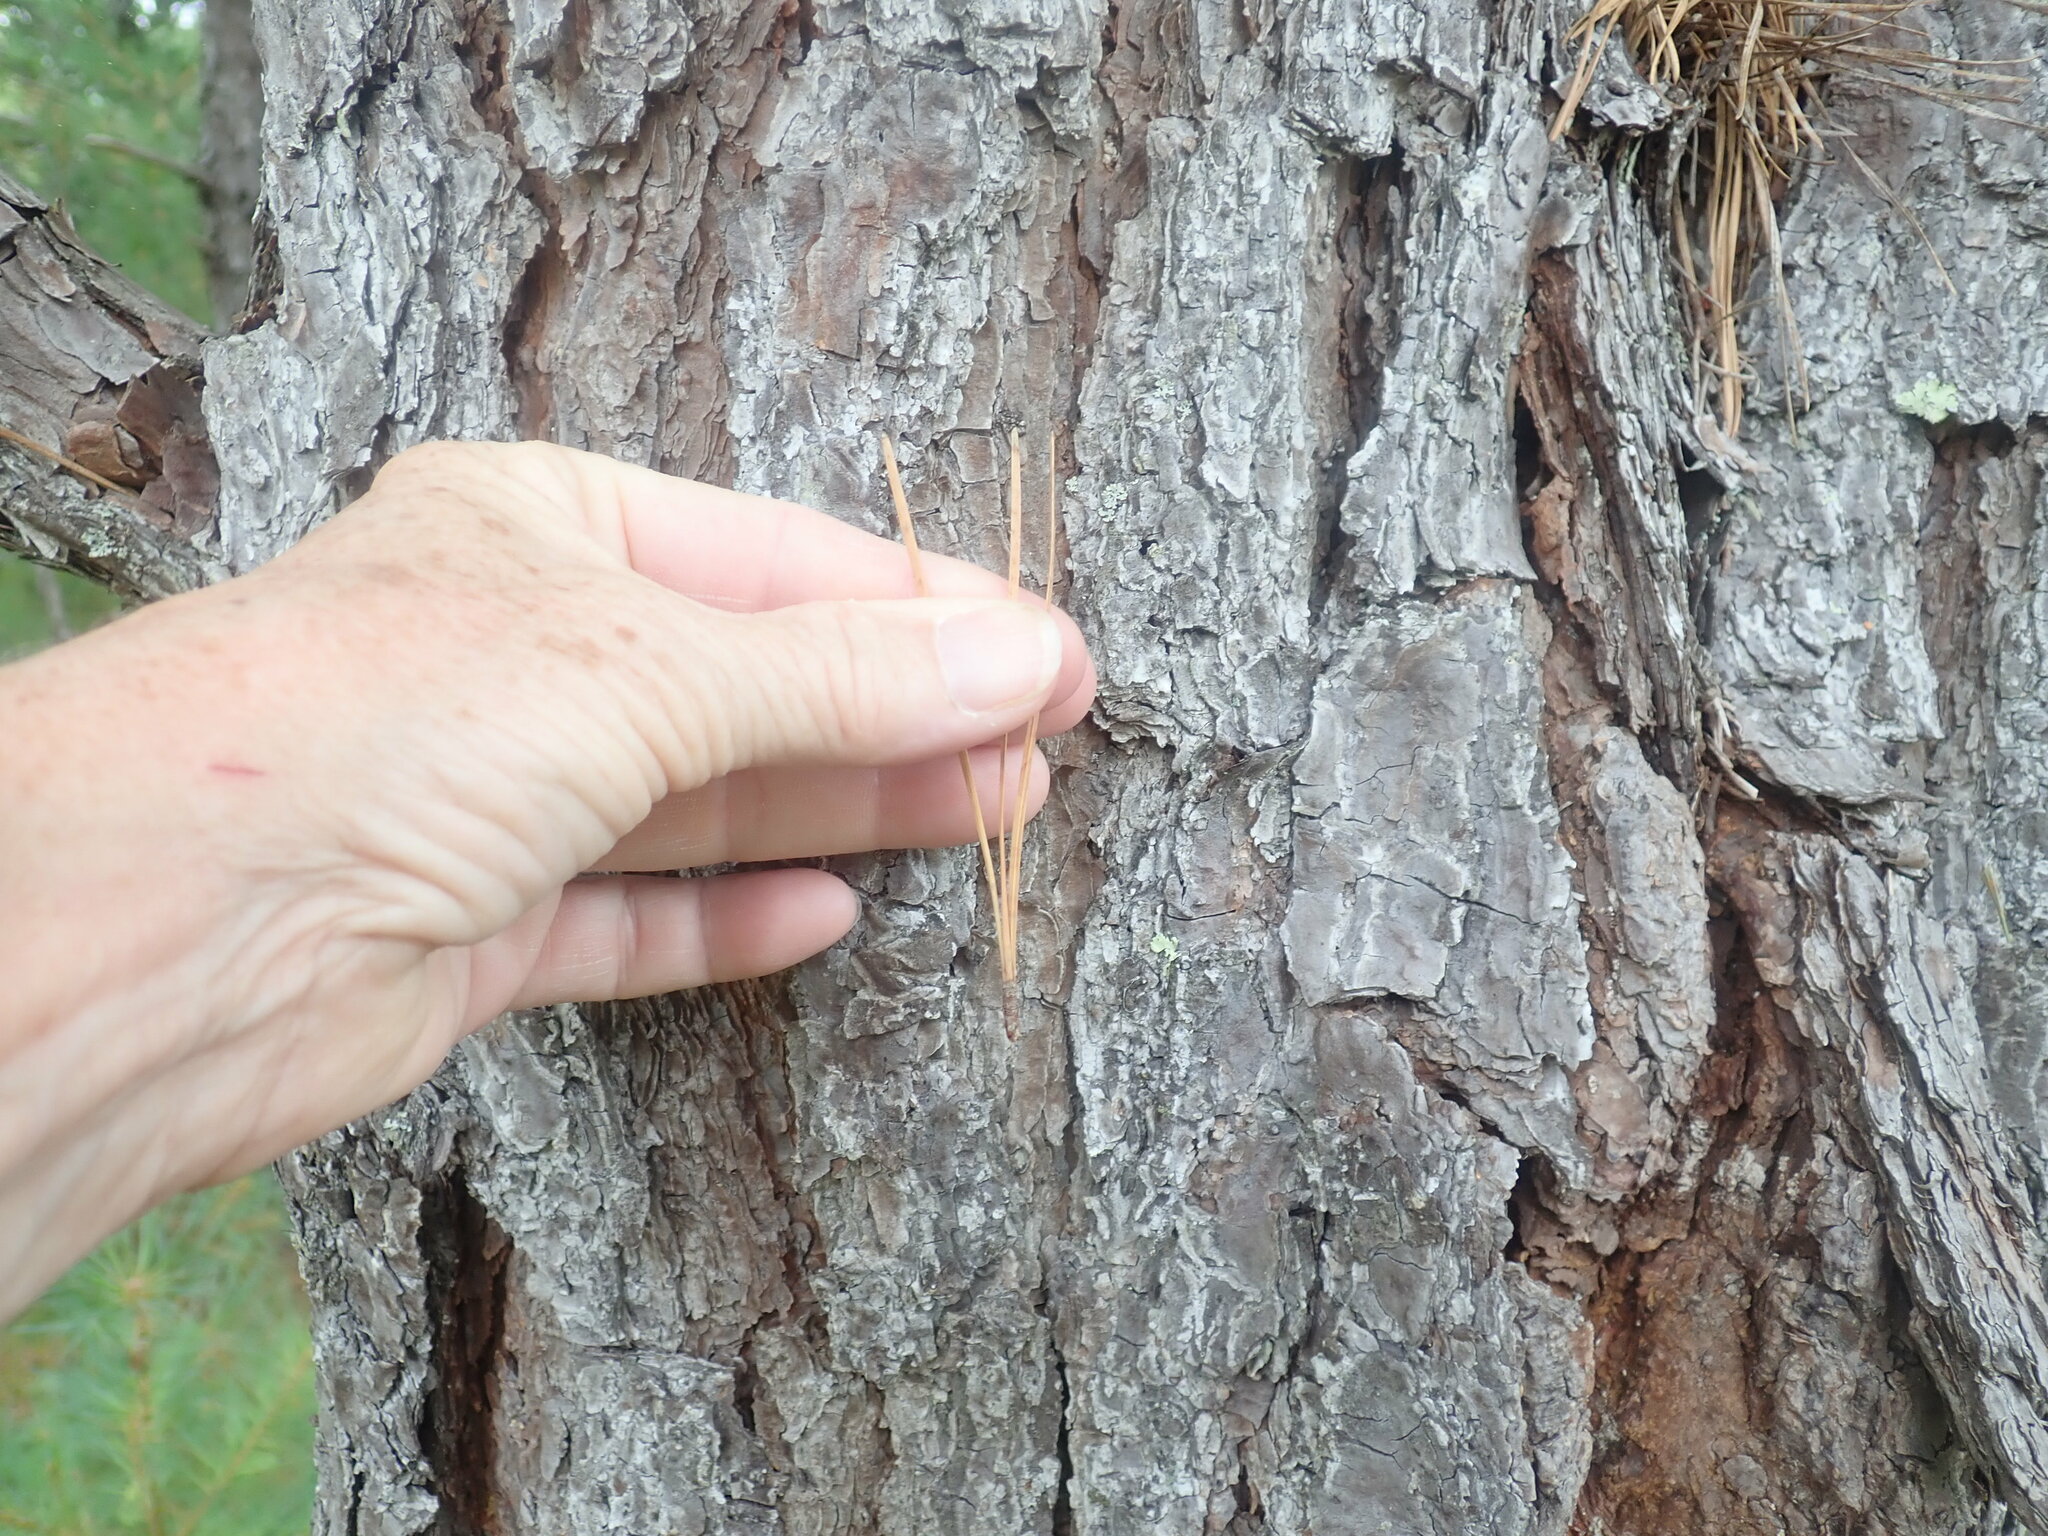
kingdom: Plantae
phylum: Tracheophyta
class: Pinopsida
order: Pinales
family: Pinaceae
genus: Pinus
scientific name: Pinus rigida
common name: Pitch pine
